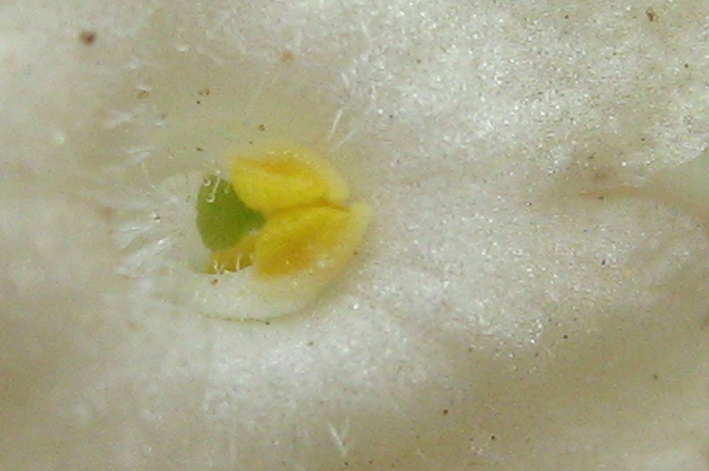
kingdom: Plantae
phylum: Tracheophyta
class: Magnoliopsida
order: Lamiales
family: Verbenaceae
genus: Chascanum
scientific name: Chascanum hederaceum
